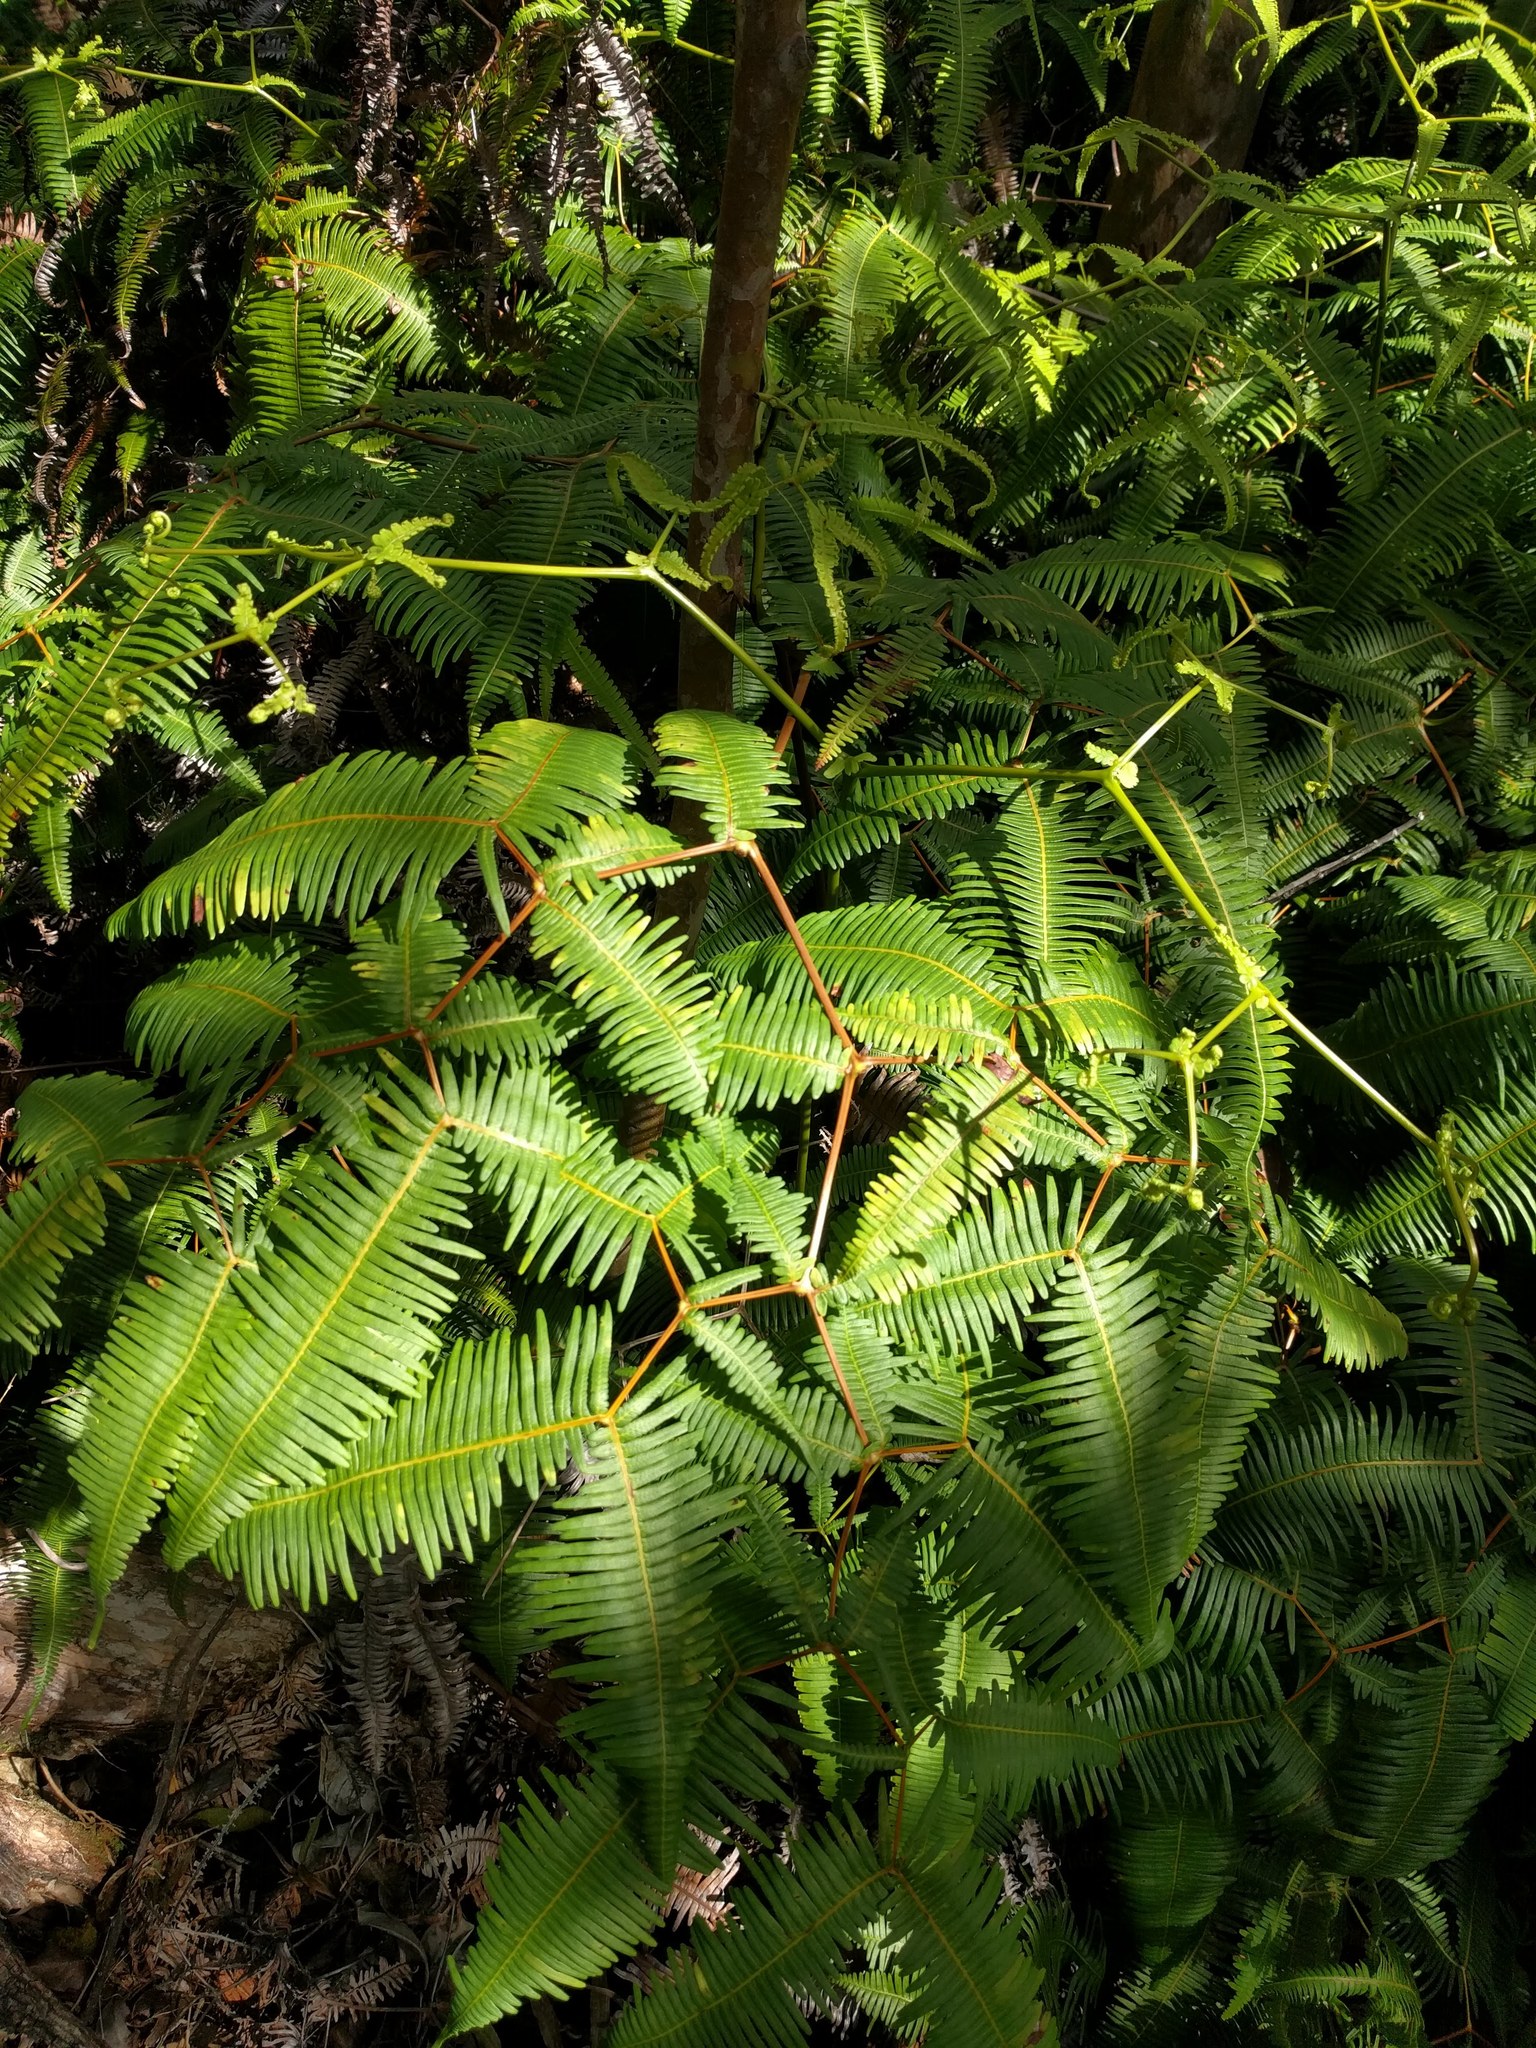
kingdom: Plantae
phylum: Tracheophyta
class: Polypodiopsida
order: Gleicheniales
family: Gleicheniaceae
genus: Dicranopteris
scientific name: Dicranopteris linearis
